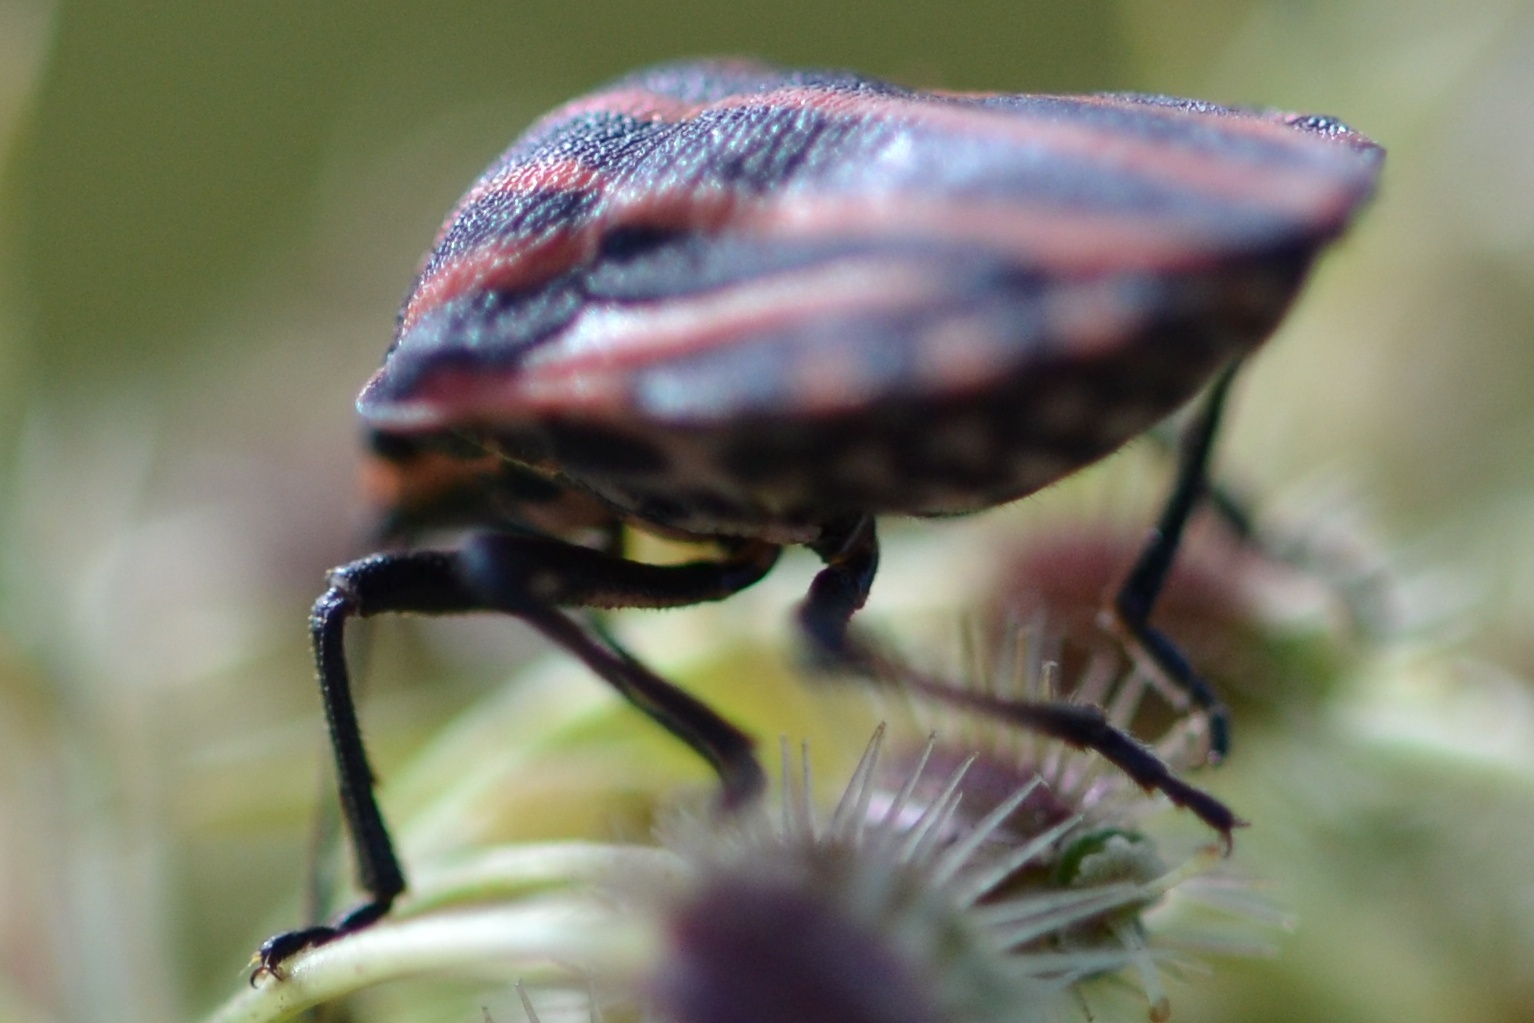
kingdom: Animalia
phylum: Arthropoda
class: Insecta
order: Hemiptera
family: Pentatomidae
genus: Graphosoma
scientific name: Graphosoma italicum
